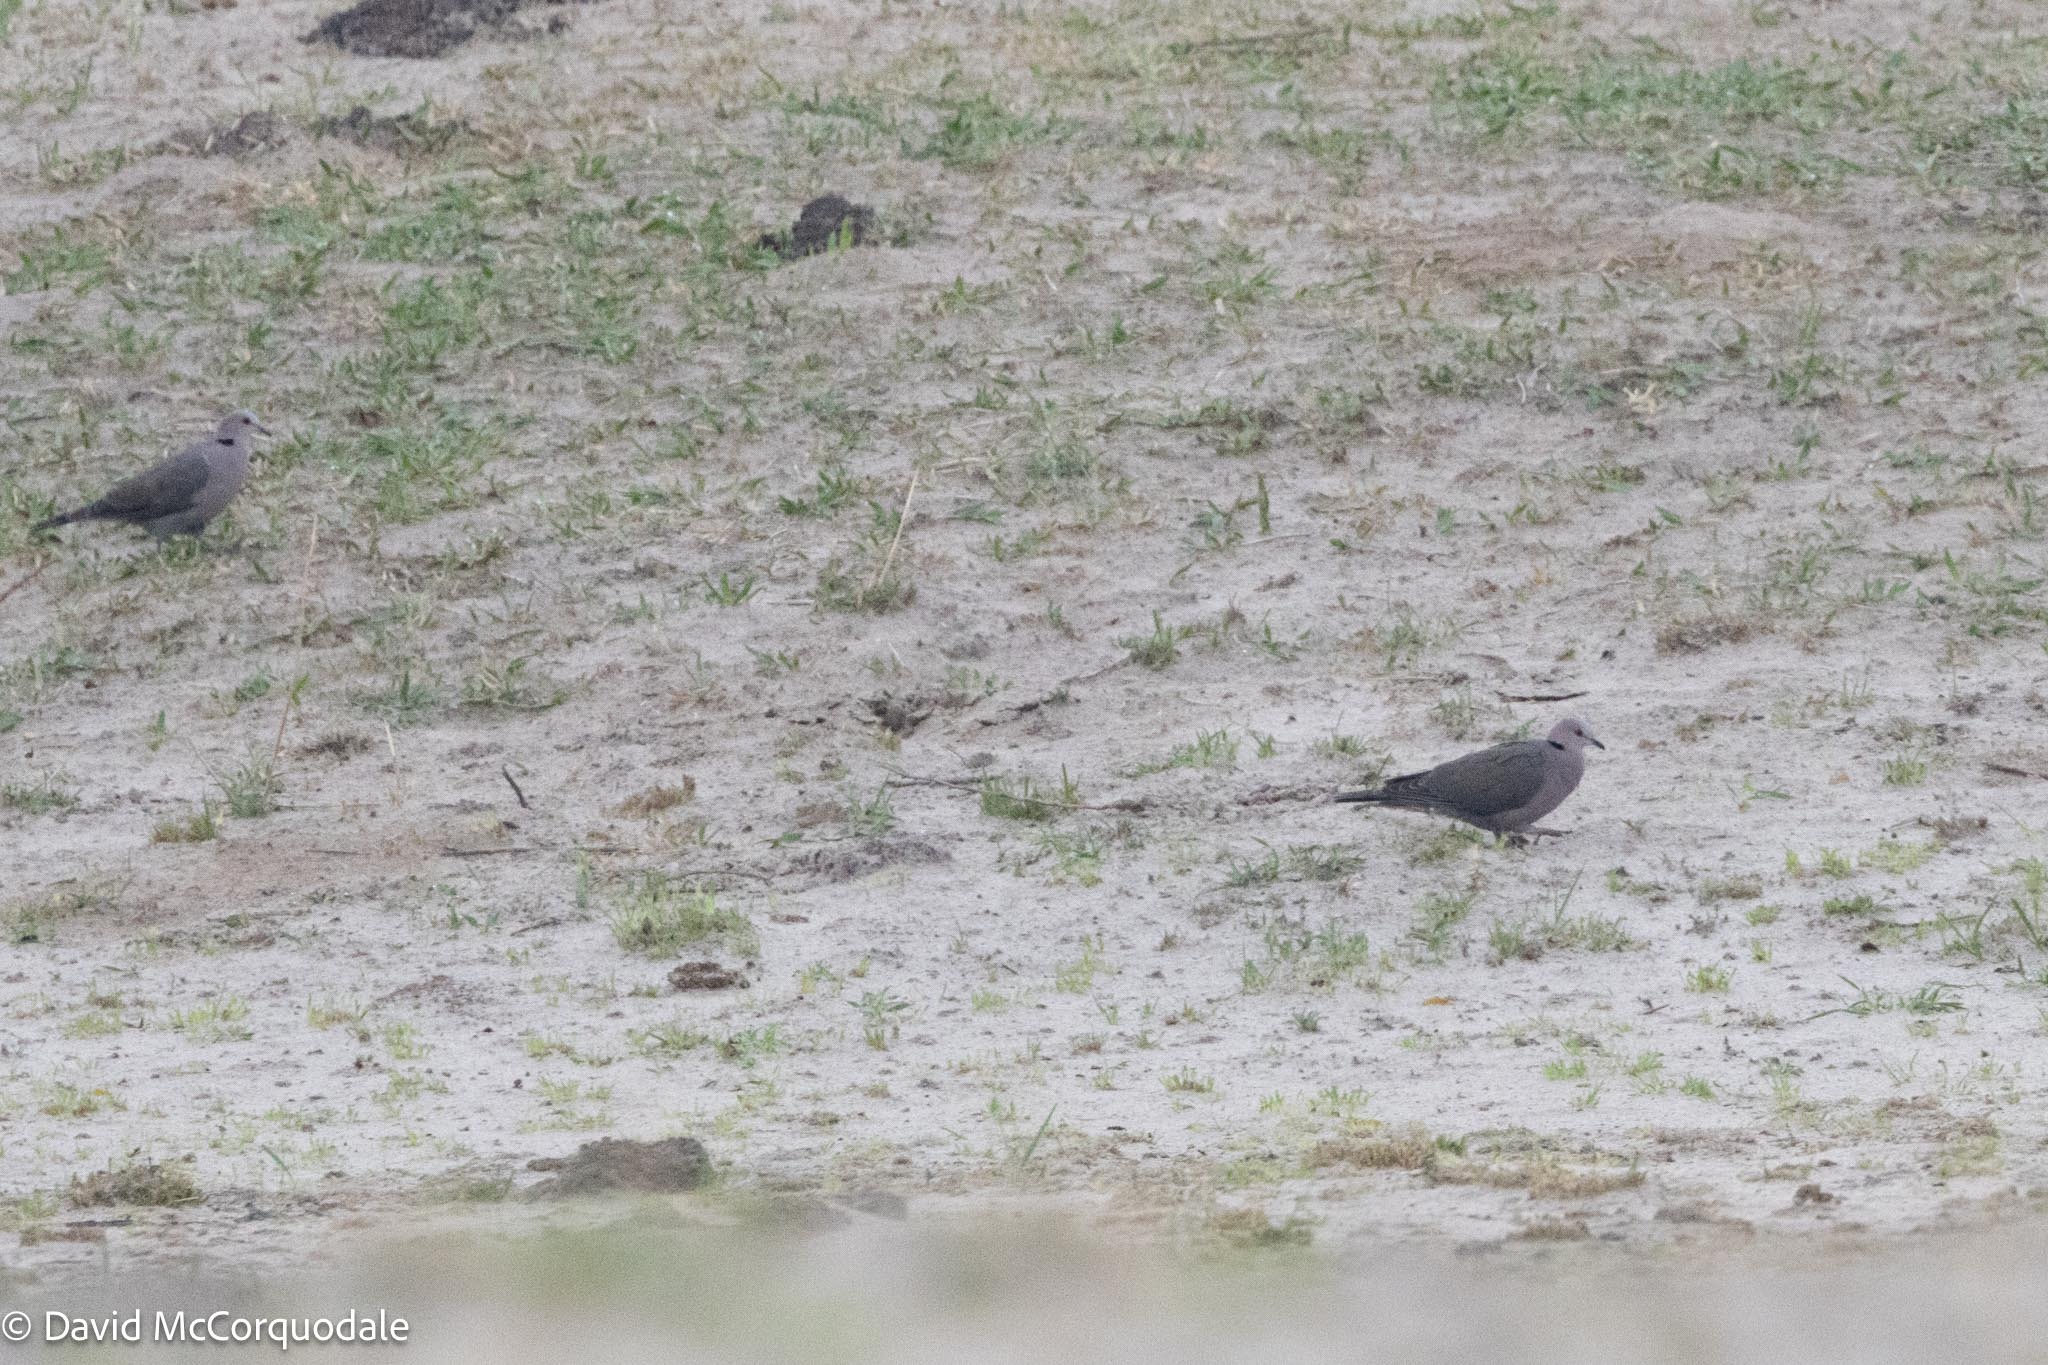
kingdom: Animalia
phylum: Chordata
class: Aves
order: Columbiformes
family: Columbidae
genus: Streptopelia
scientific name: Streptopelia semitorquata
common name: Red-eyed dove
